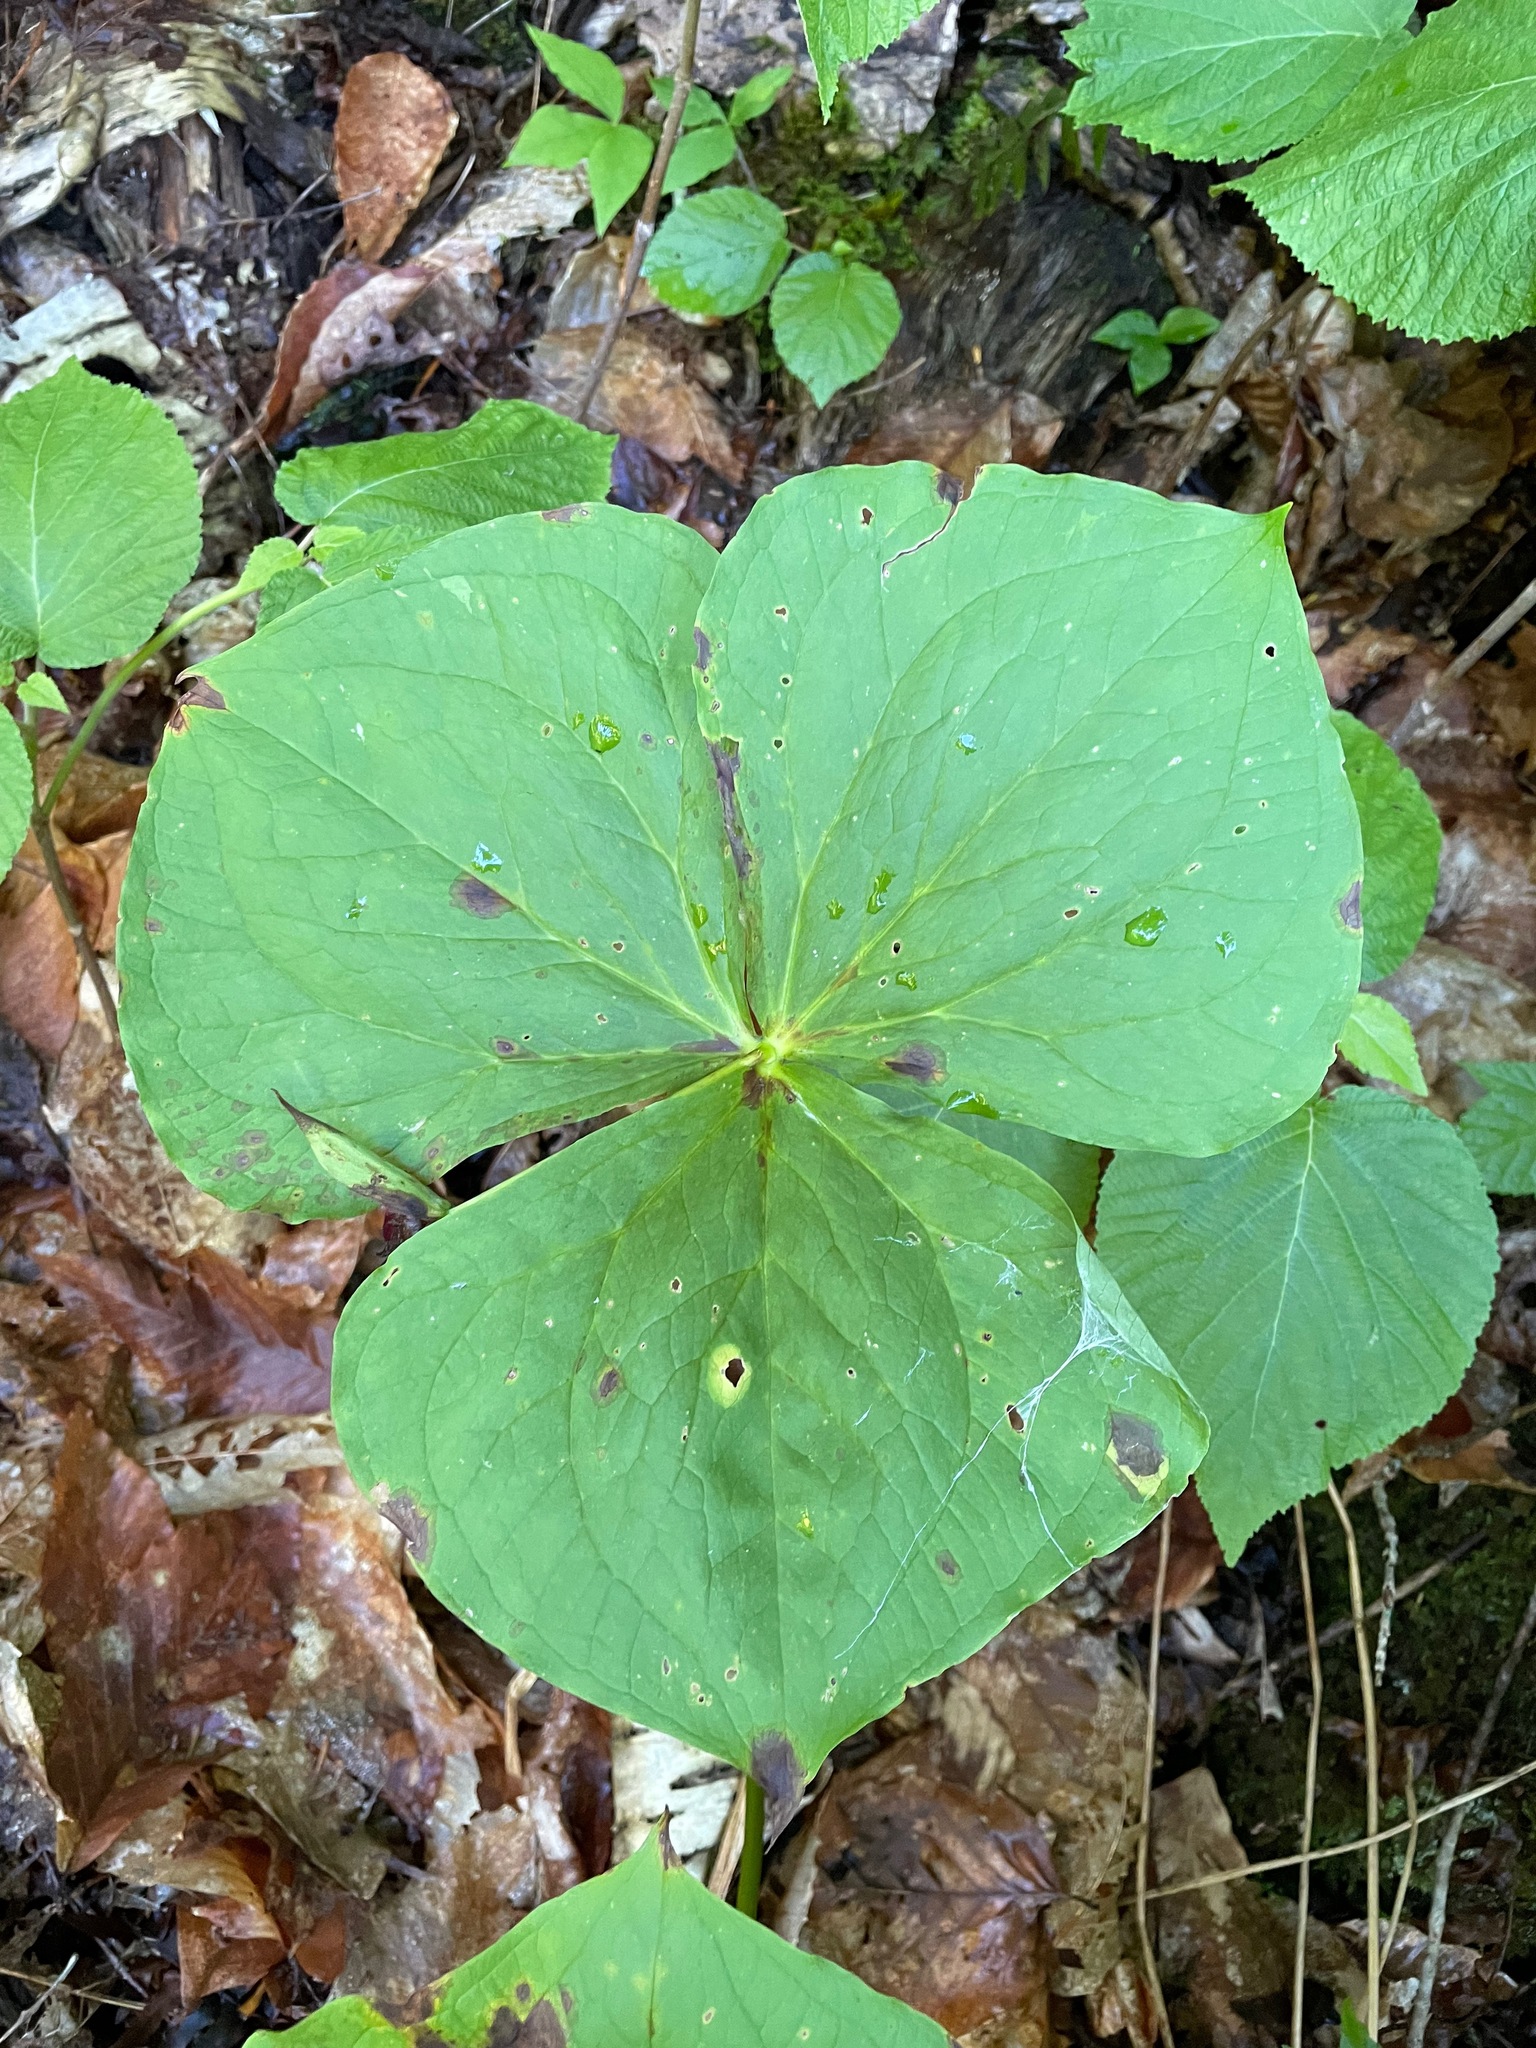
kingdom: Plantae
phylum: Tracheophyta
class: Liliopsida
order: Liliales
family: Melanthiaceae
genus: Trillium
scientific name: Trillium erectum
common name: Purple trillium
